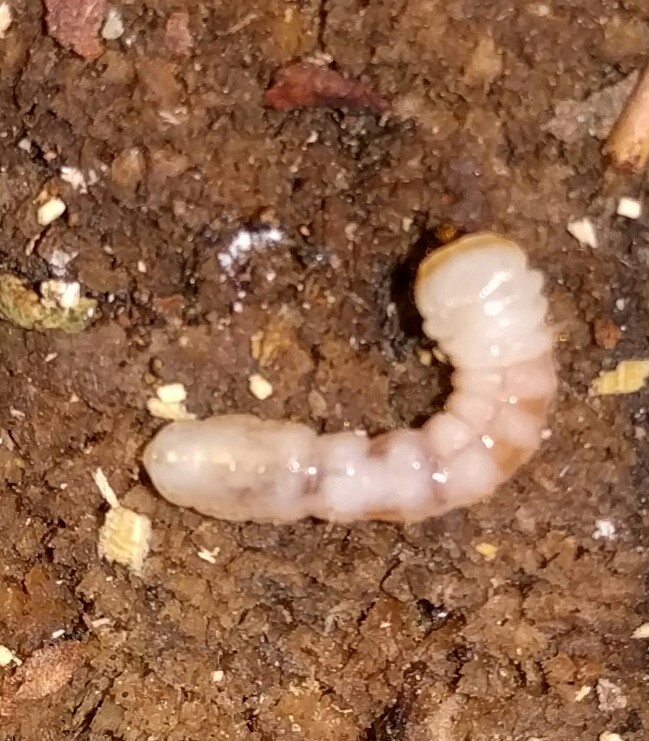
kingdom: Animalia
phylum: Arthropoda
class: Insecta
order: Coleoptera
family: Cerambycidae
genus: Prionoplus
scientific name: Prionoplus reticularis
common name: Huhu beetle
